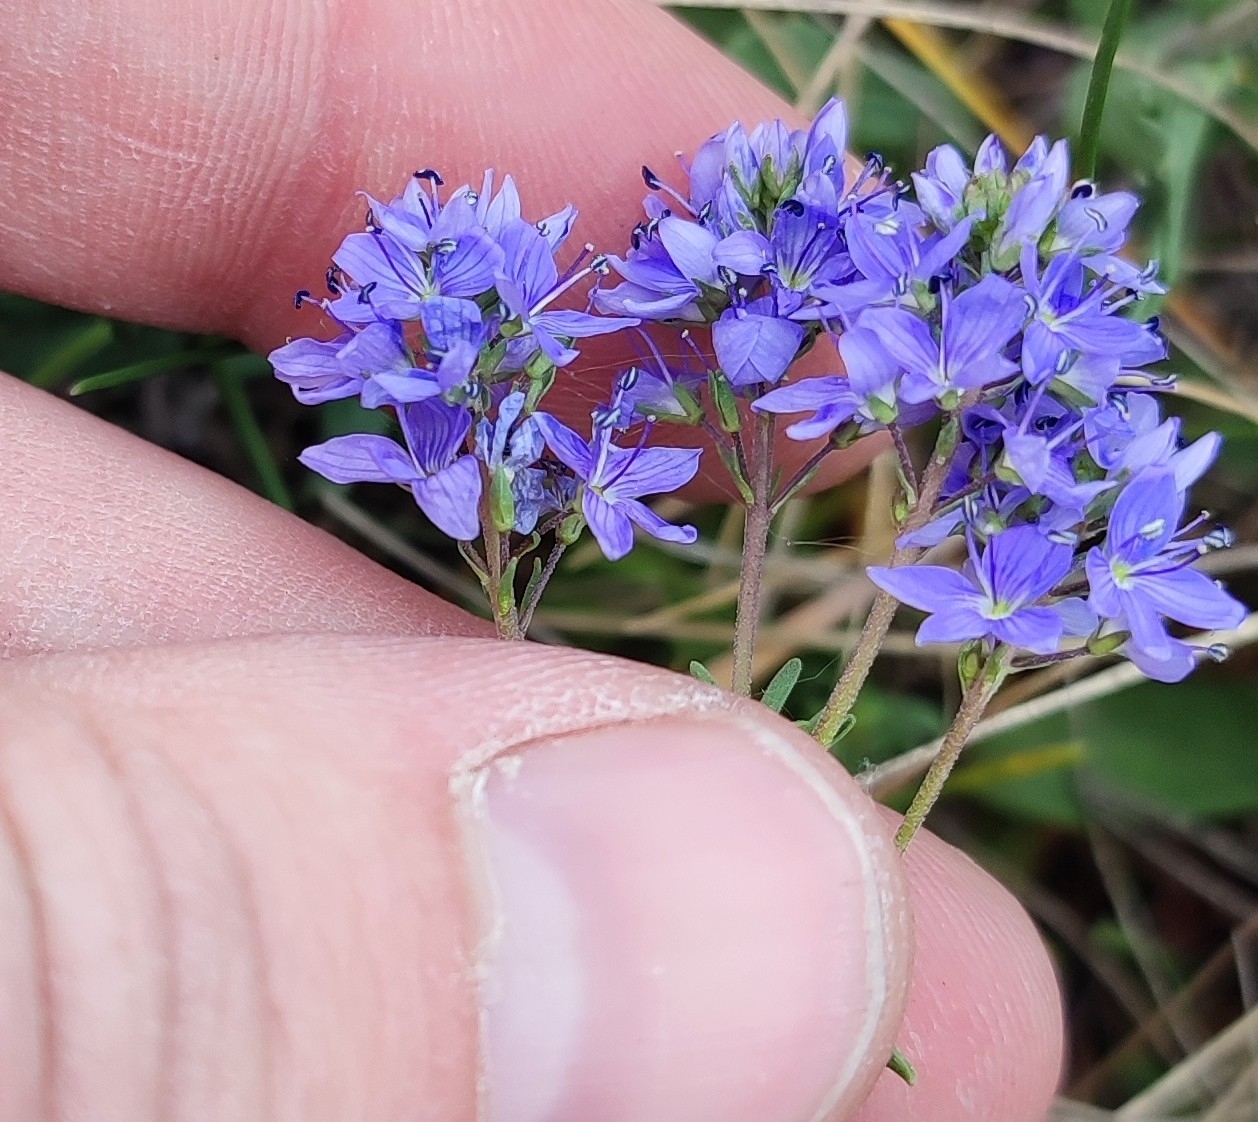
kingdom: Plantae
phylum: Tracheophyta
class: Magnoliopsida
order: Lamiales
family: Plantaginaceae
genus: Veronica
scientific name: Veronica prostrata
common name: Prostrate speedwell
